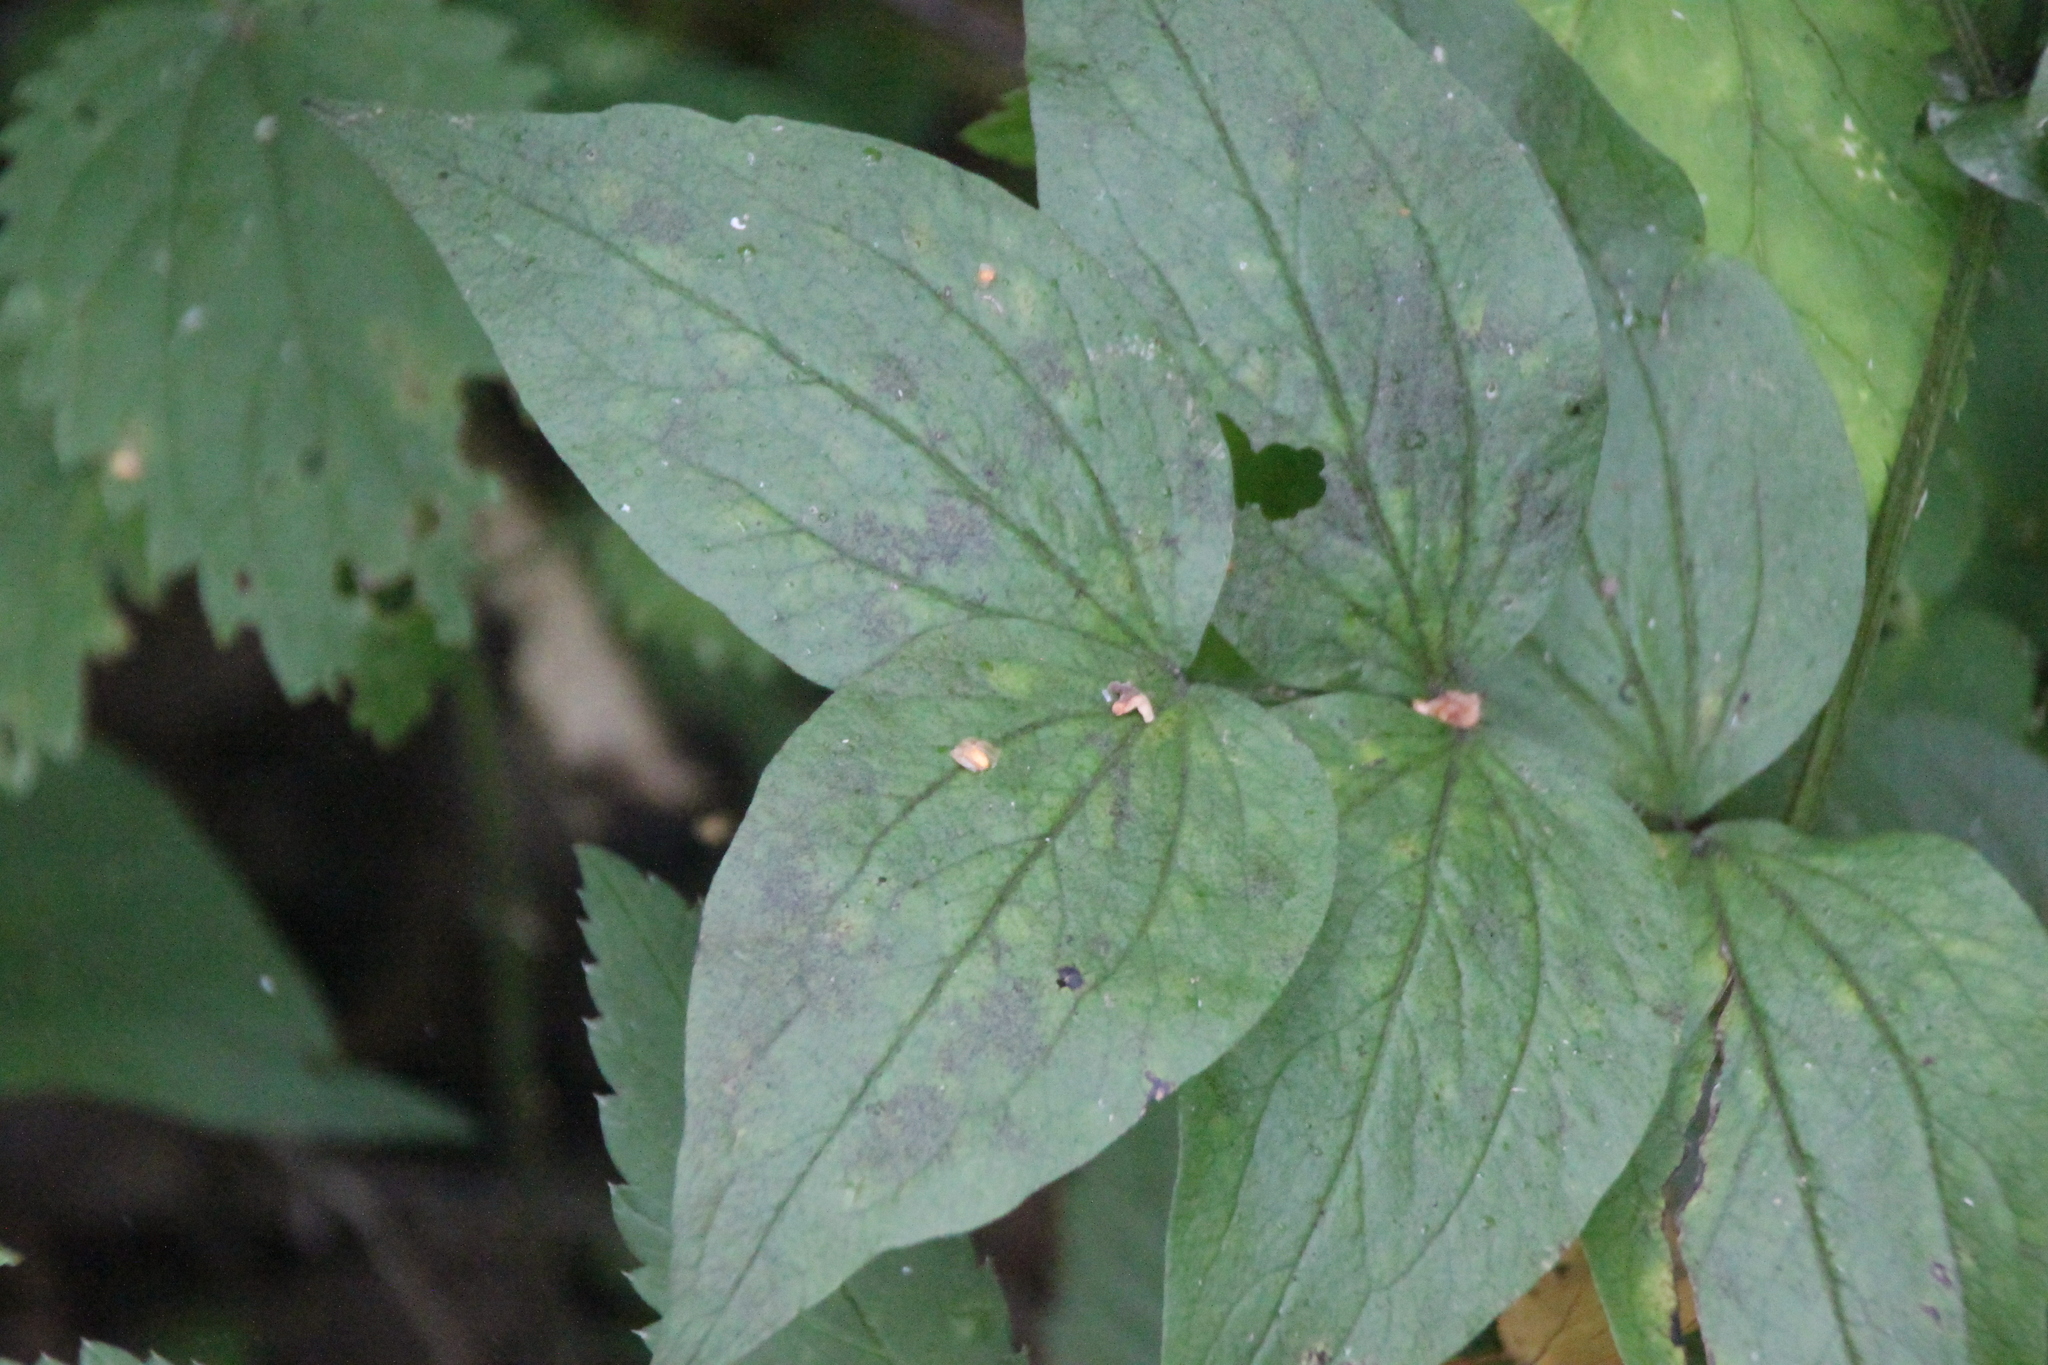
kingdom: Plantae
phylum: Tracheophyta
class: Magnoliopsida
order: Fabales
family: Fabaceae
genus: Lathyrus
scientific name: Lathyrus vernus
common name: Spring pea
